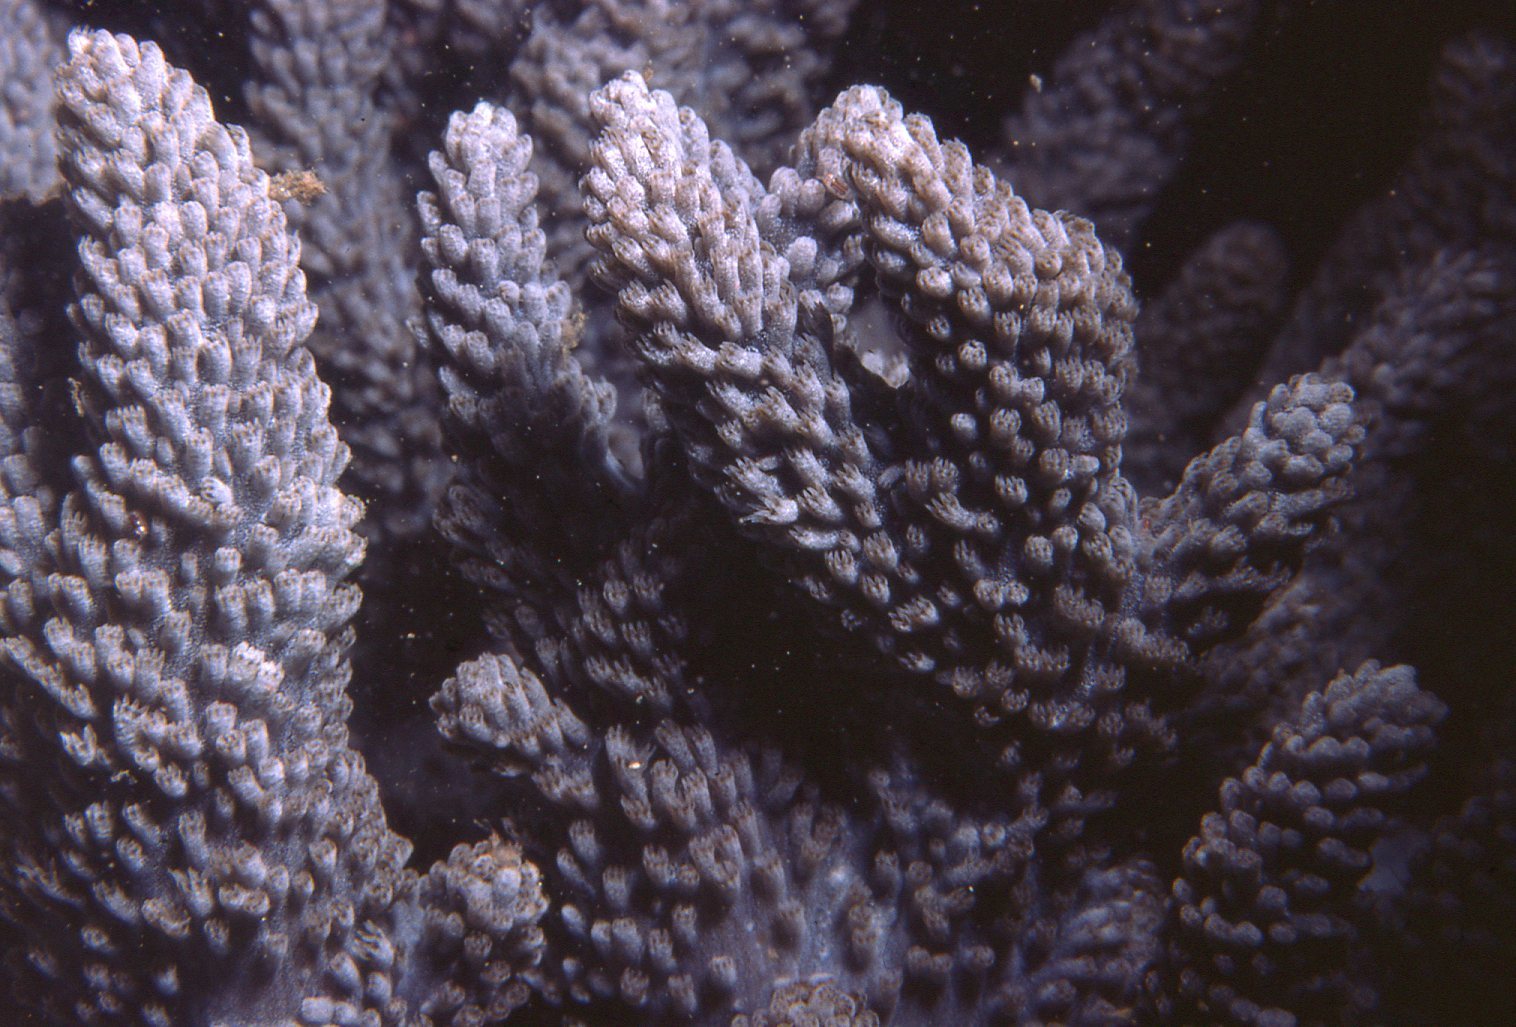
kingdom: Animalia
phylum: Cnidaria
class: Anthozoa
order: Malacalcyonacea
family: Capnellidae
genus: Capnella
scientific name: Capnella gaboensis
